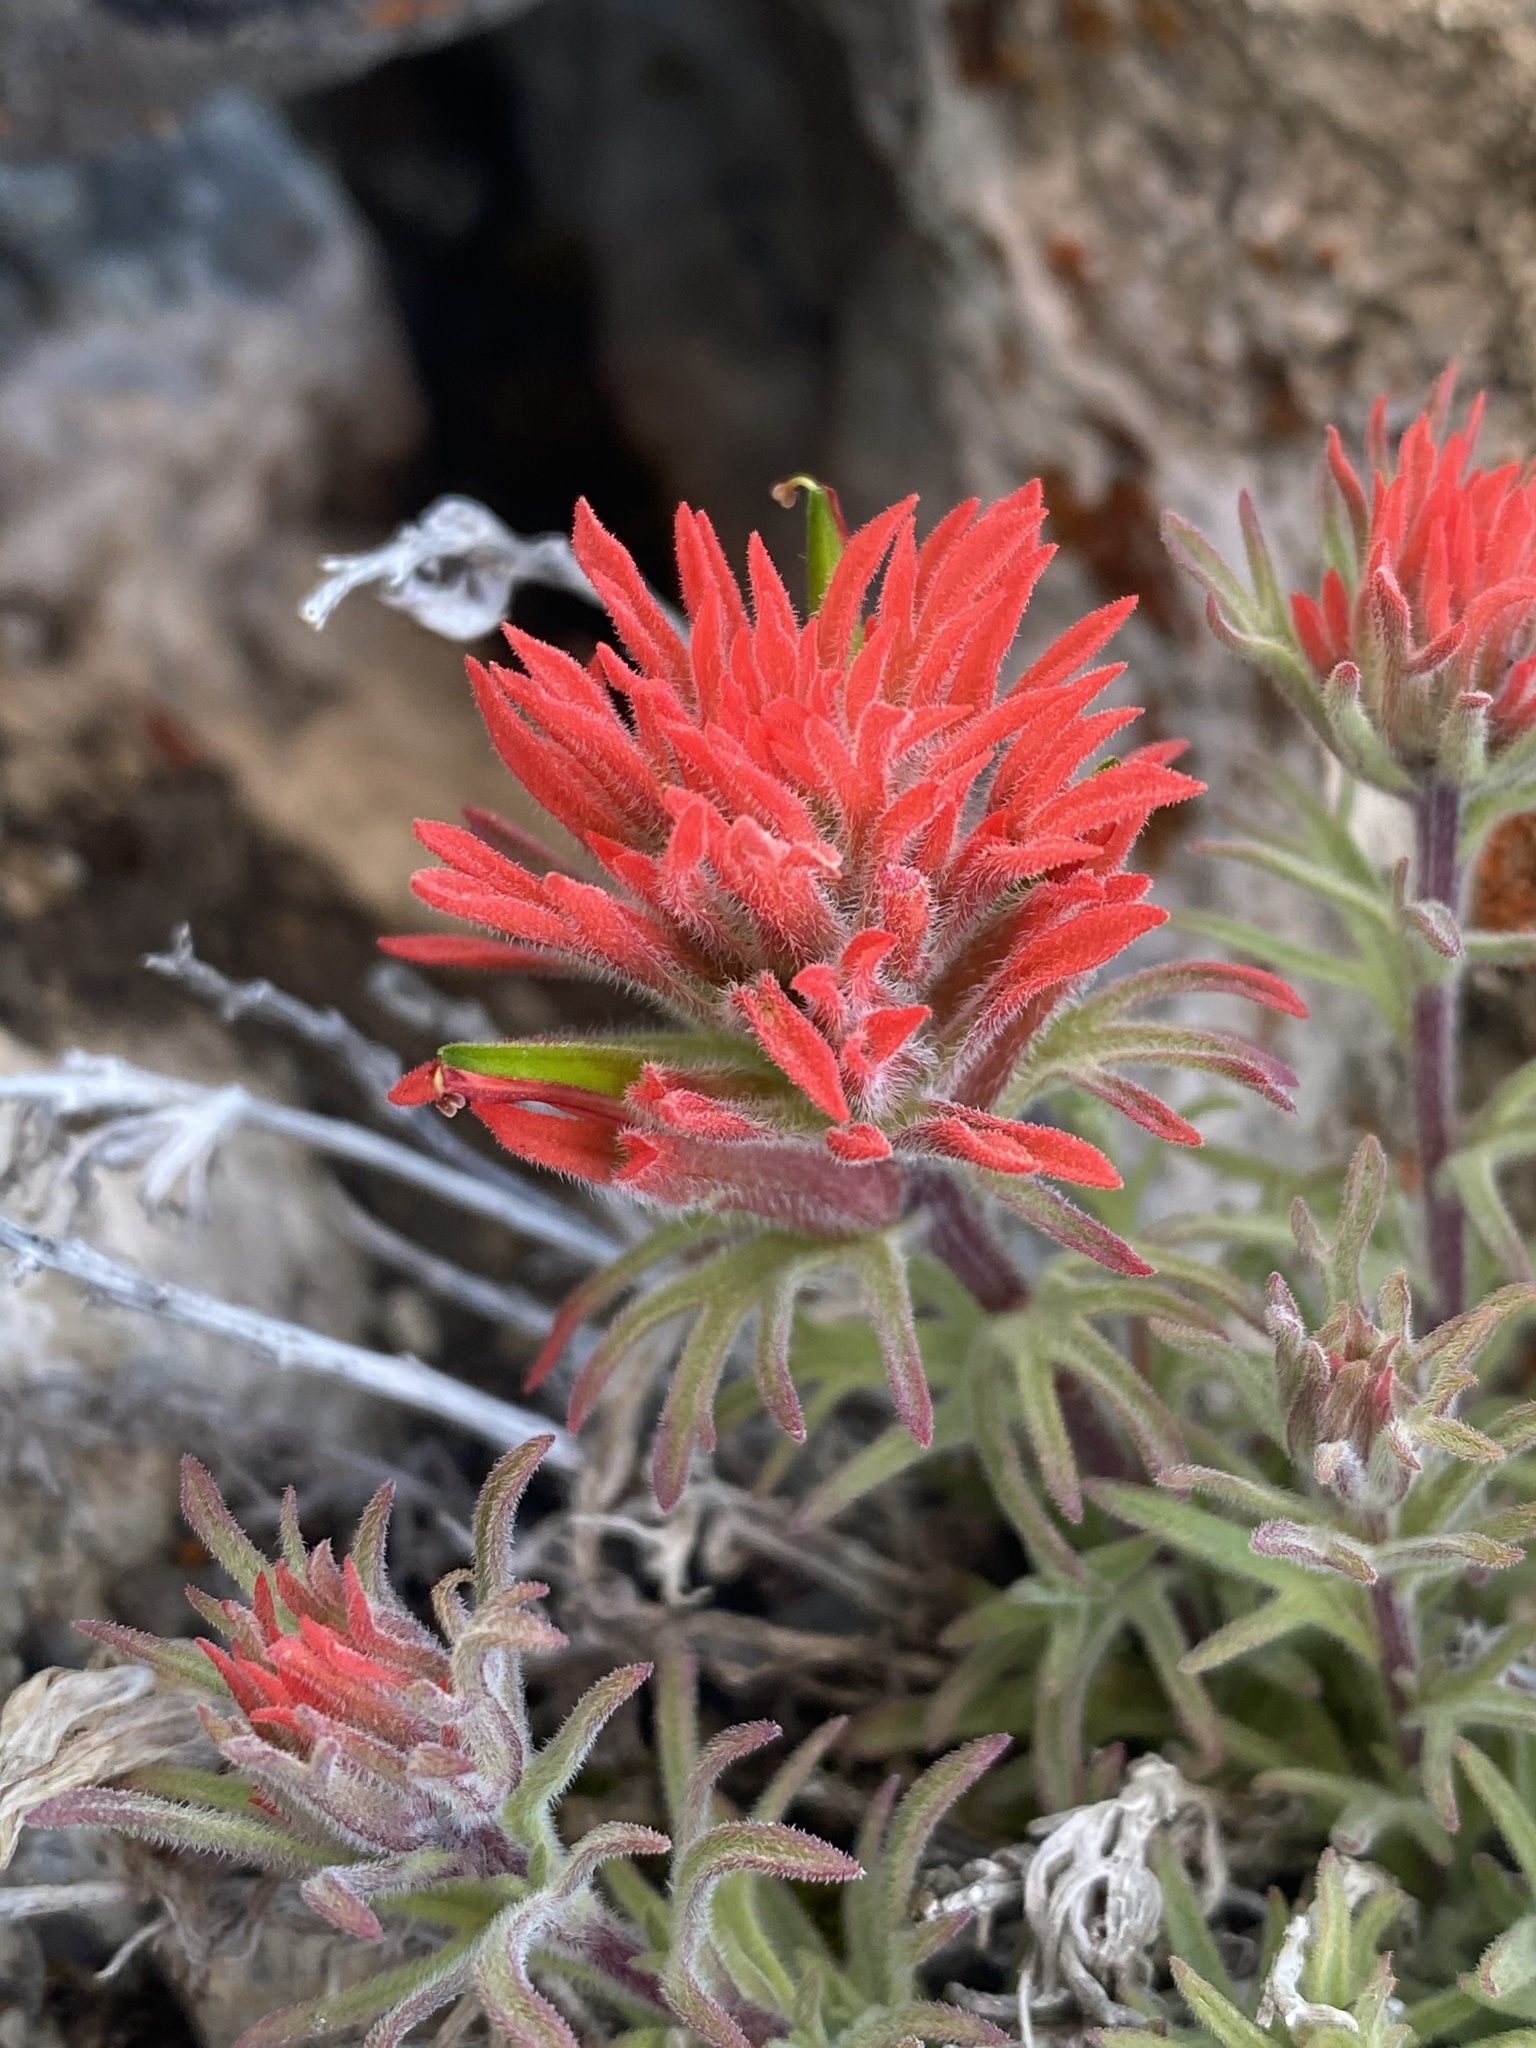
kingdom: Plantae
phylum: Tracheophyta
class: Magnoliopsida
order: Lamiales
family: Orobanchaceae
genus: Castilleja
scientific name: Castilleja scabrida
